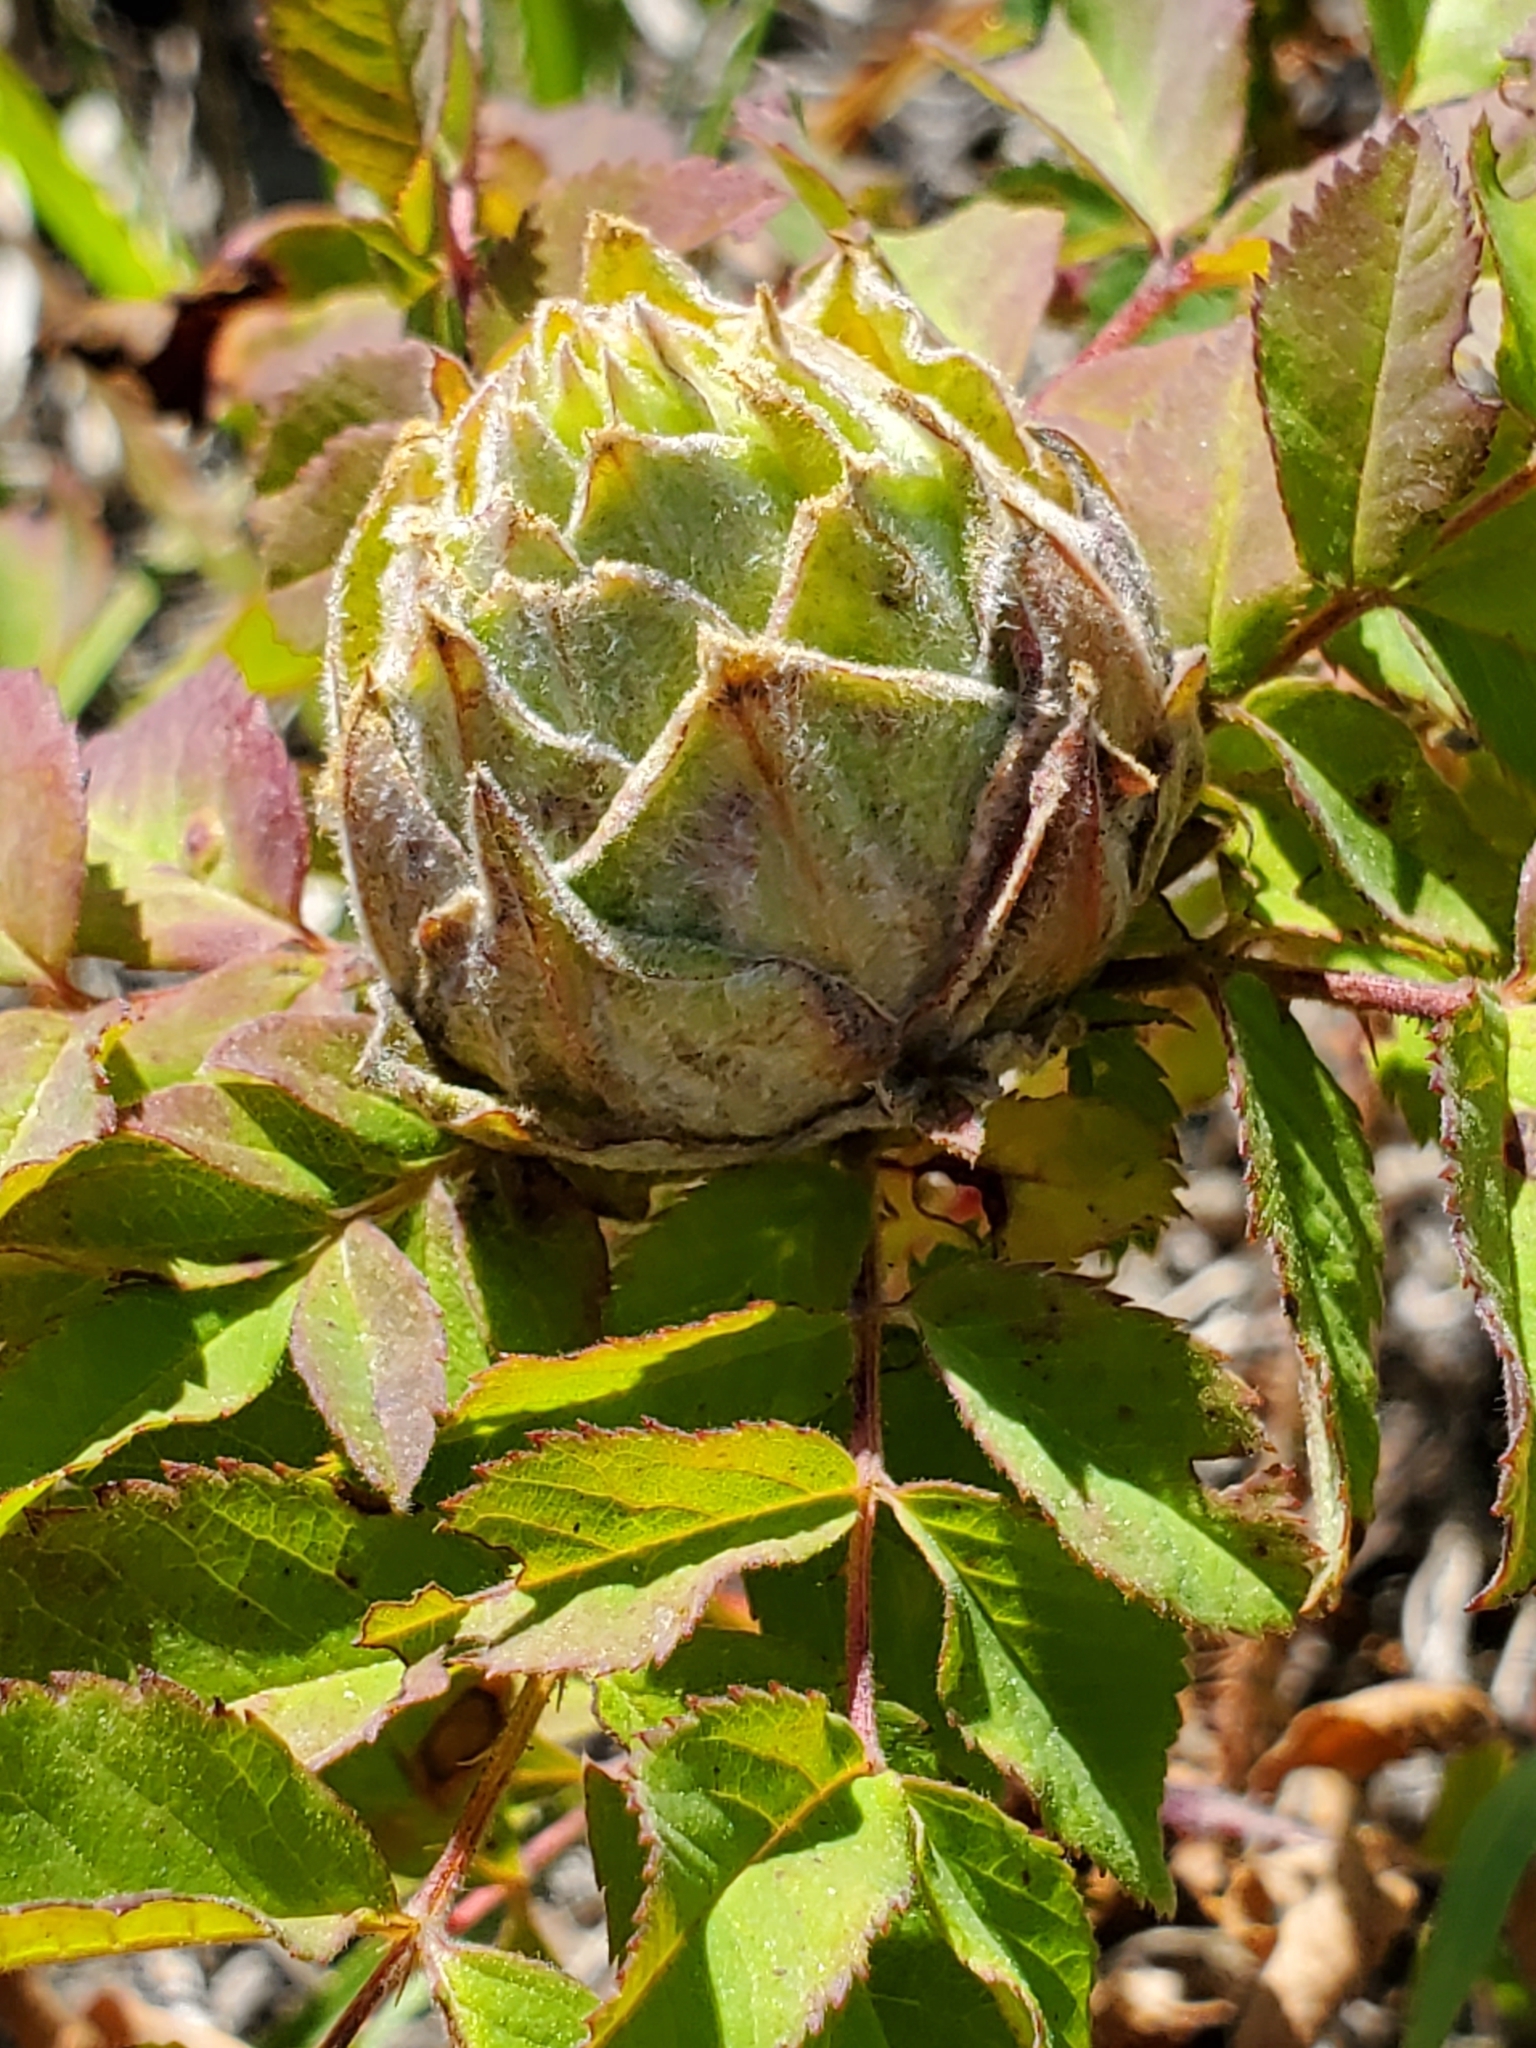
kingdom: Animalia
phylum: Arthropoda
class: Insecta
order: Diptera
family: Cecidomyiidae
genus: Rabdophaga
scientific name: Rabdophaga rosacea
